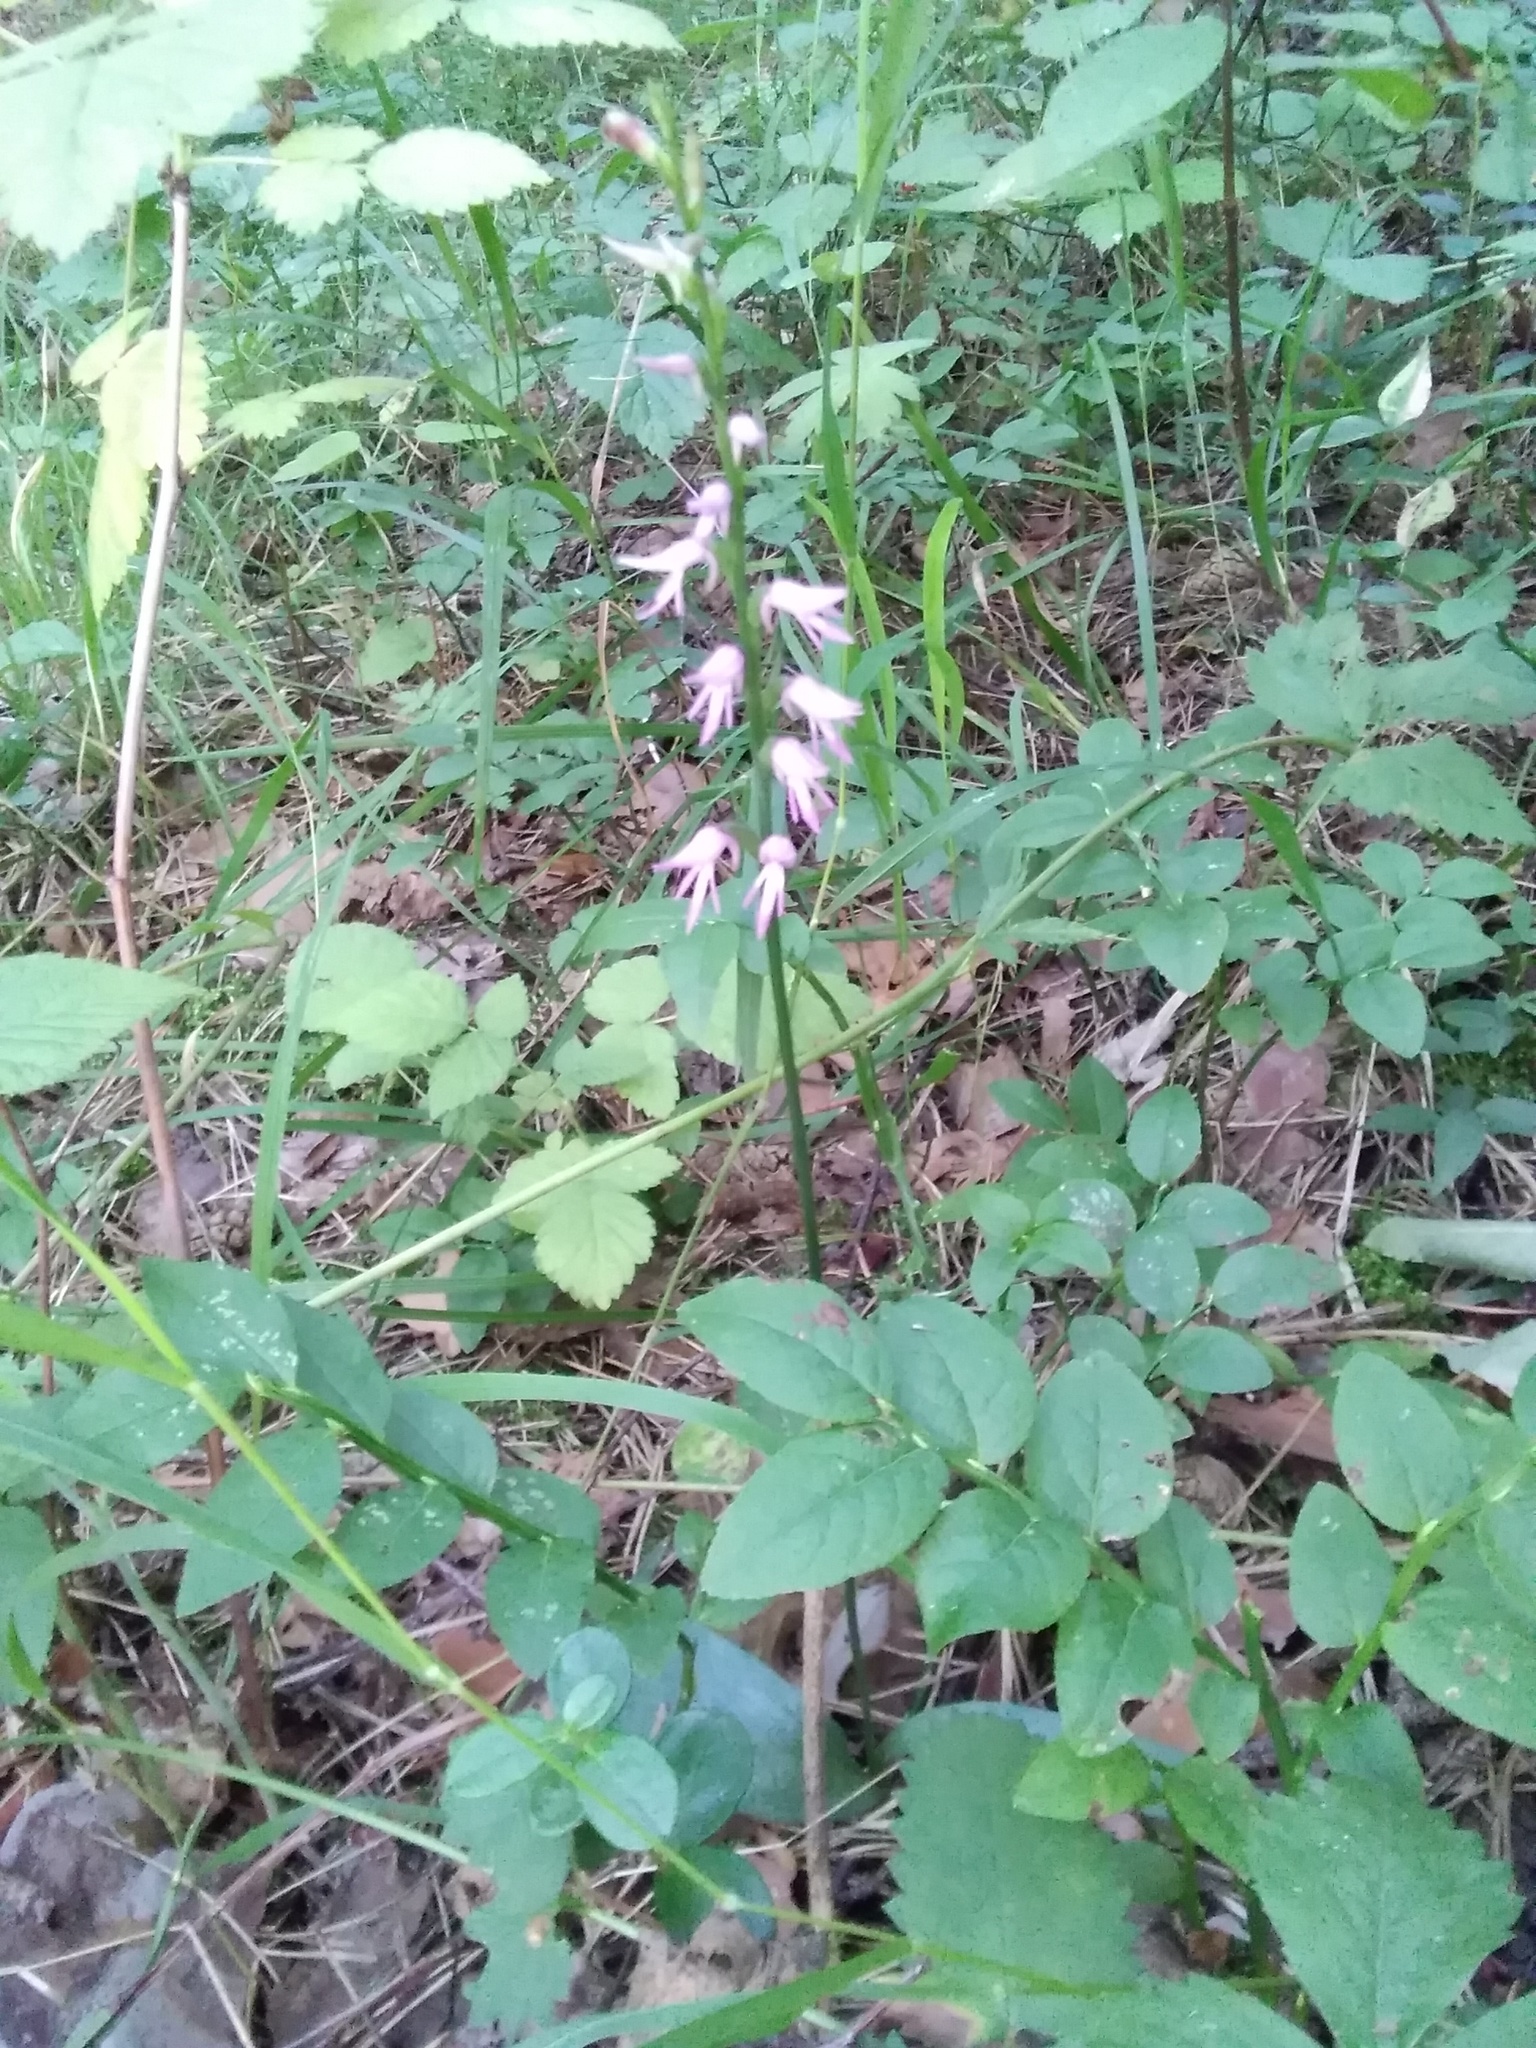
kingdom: Plantae
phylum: Tracheophyta
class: Liliopsida
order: Asparagales
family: Orchidaceae
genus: Hemipilia
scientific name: Hemipilia cucullata
